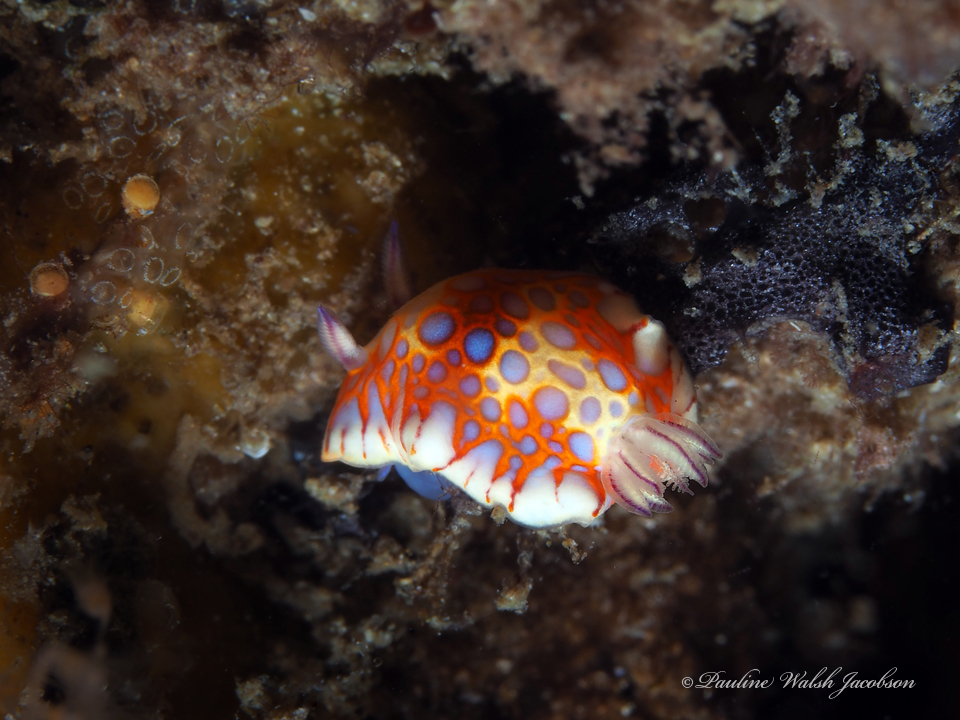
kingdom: Animalia
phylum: Mollusca
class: Gastropoda
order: Nudibranchia
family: Chromodorididae
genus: Felimida
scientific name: Felimida binza
